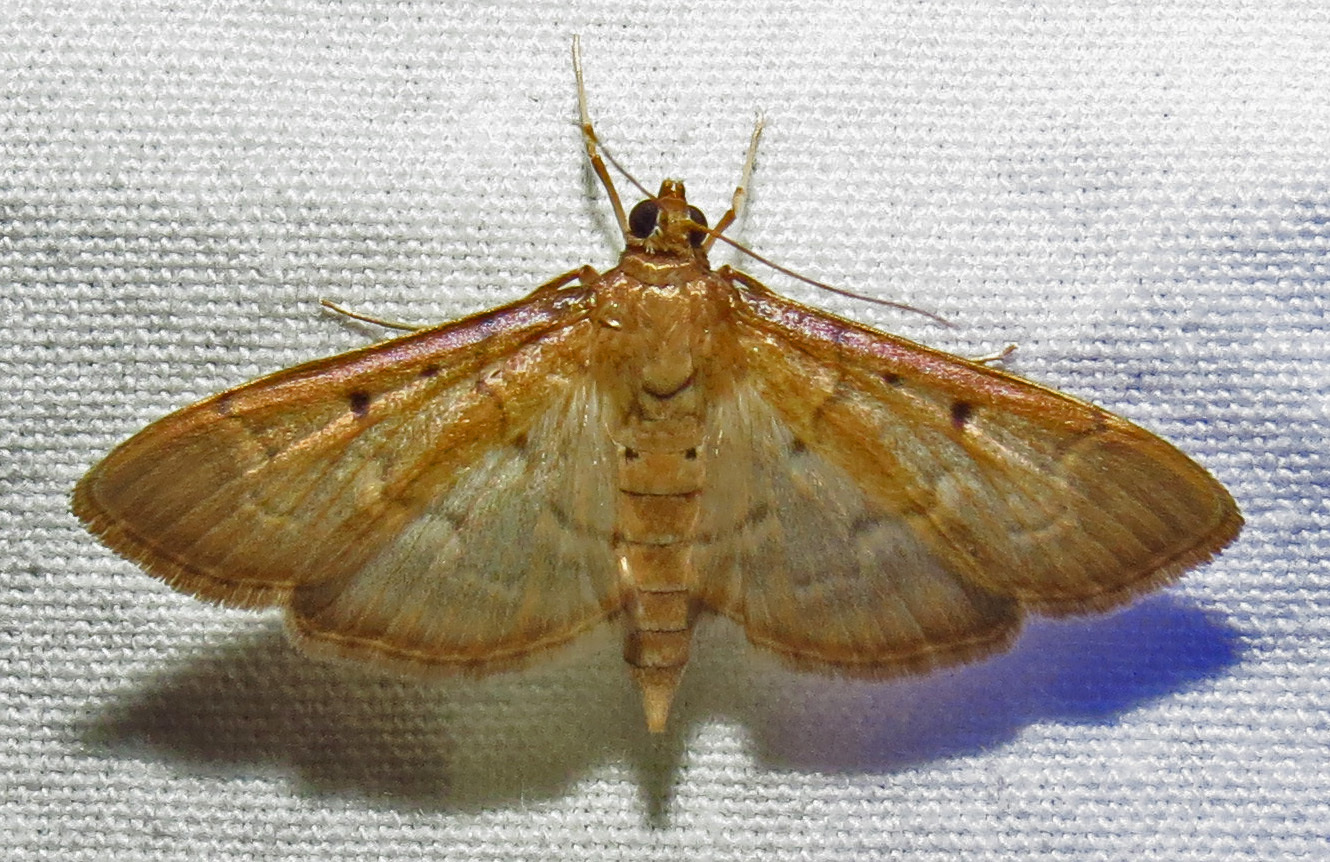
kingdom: Animalia
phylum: Arthropoda
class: Insecta
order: Lepidoptera
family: Crambidae
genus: Herpetogramma
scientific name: Herpetogramma bipunctalis
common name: Southern beet webworm
